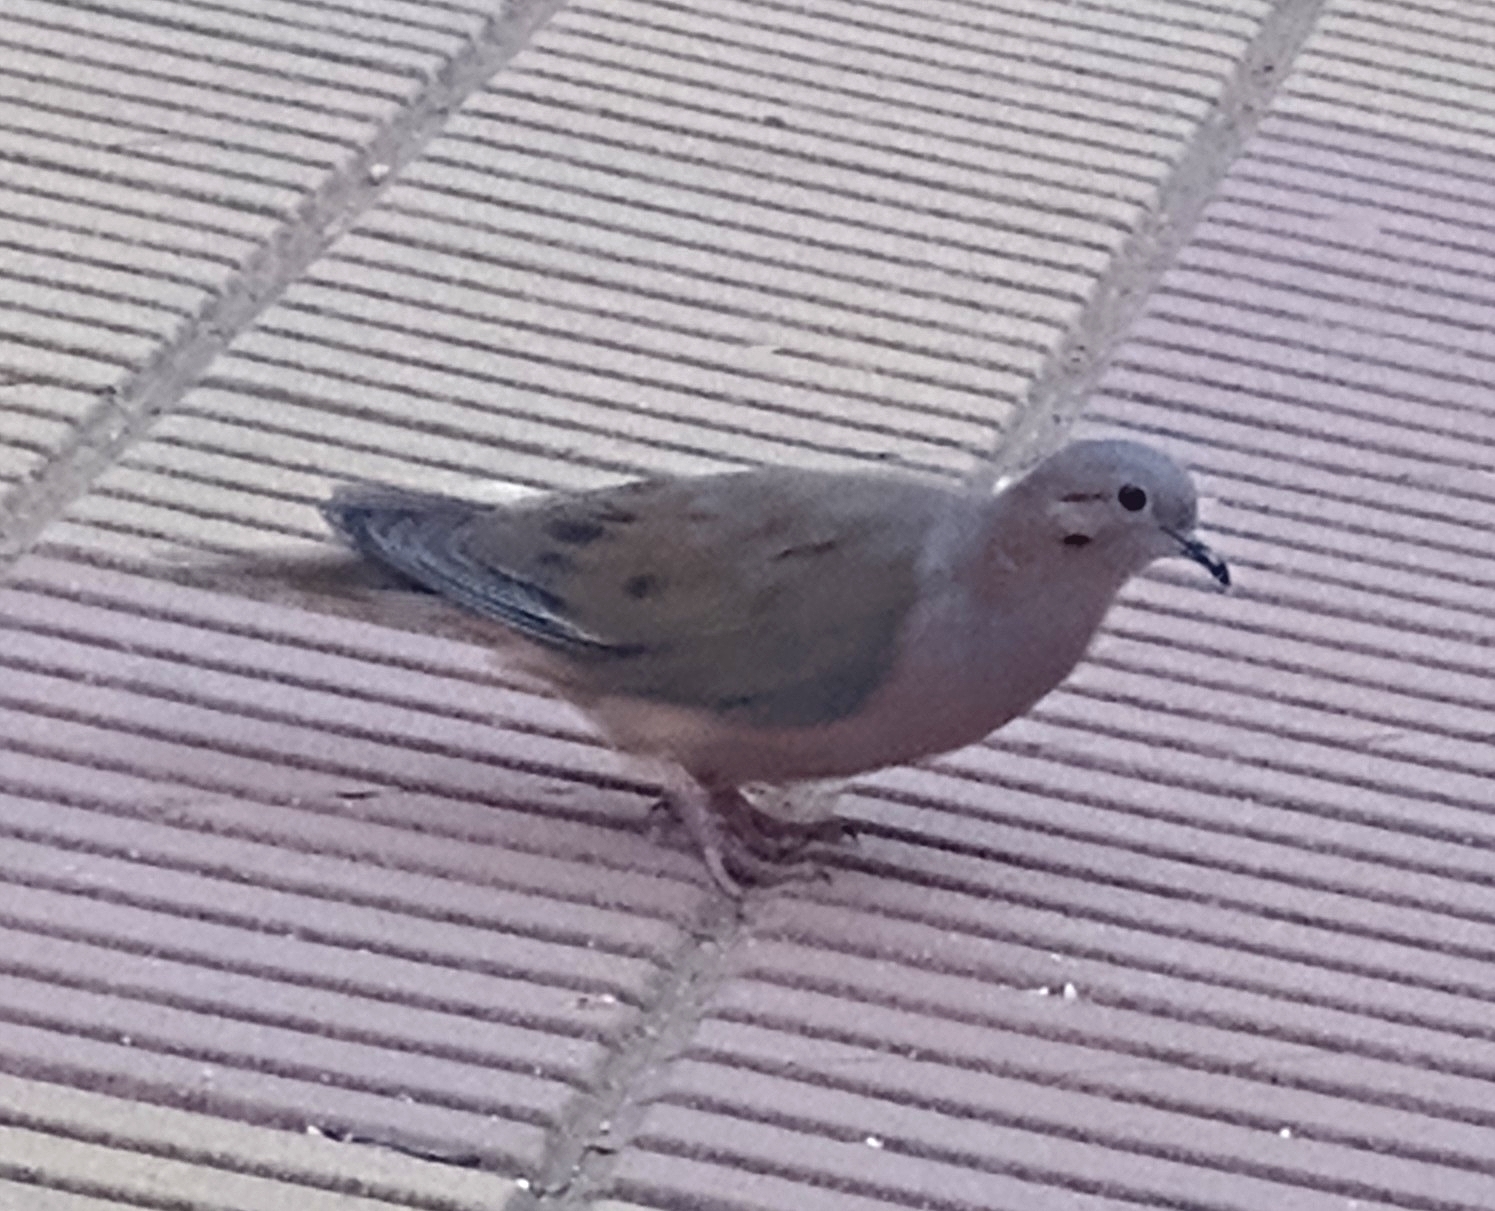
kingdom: Animalia
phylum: Chordata
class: Aves
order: Columbiformes
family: Columbidae
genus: Zenaida
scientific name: Zenaida auriculata
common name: Eared dove
